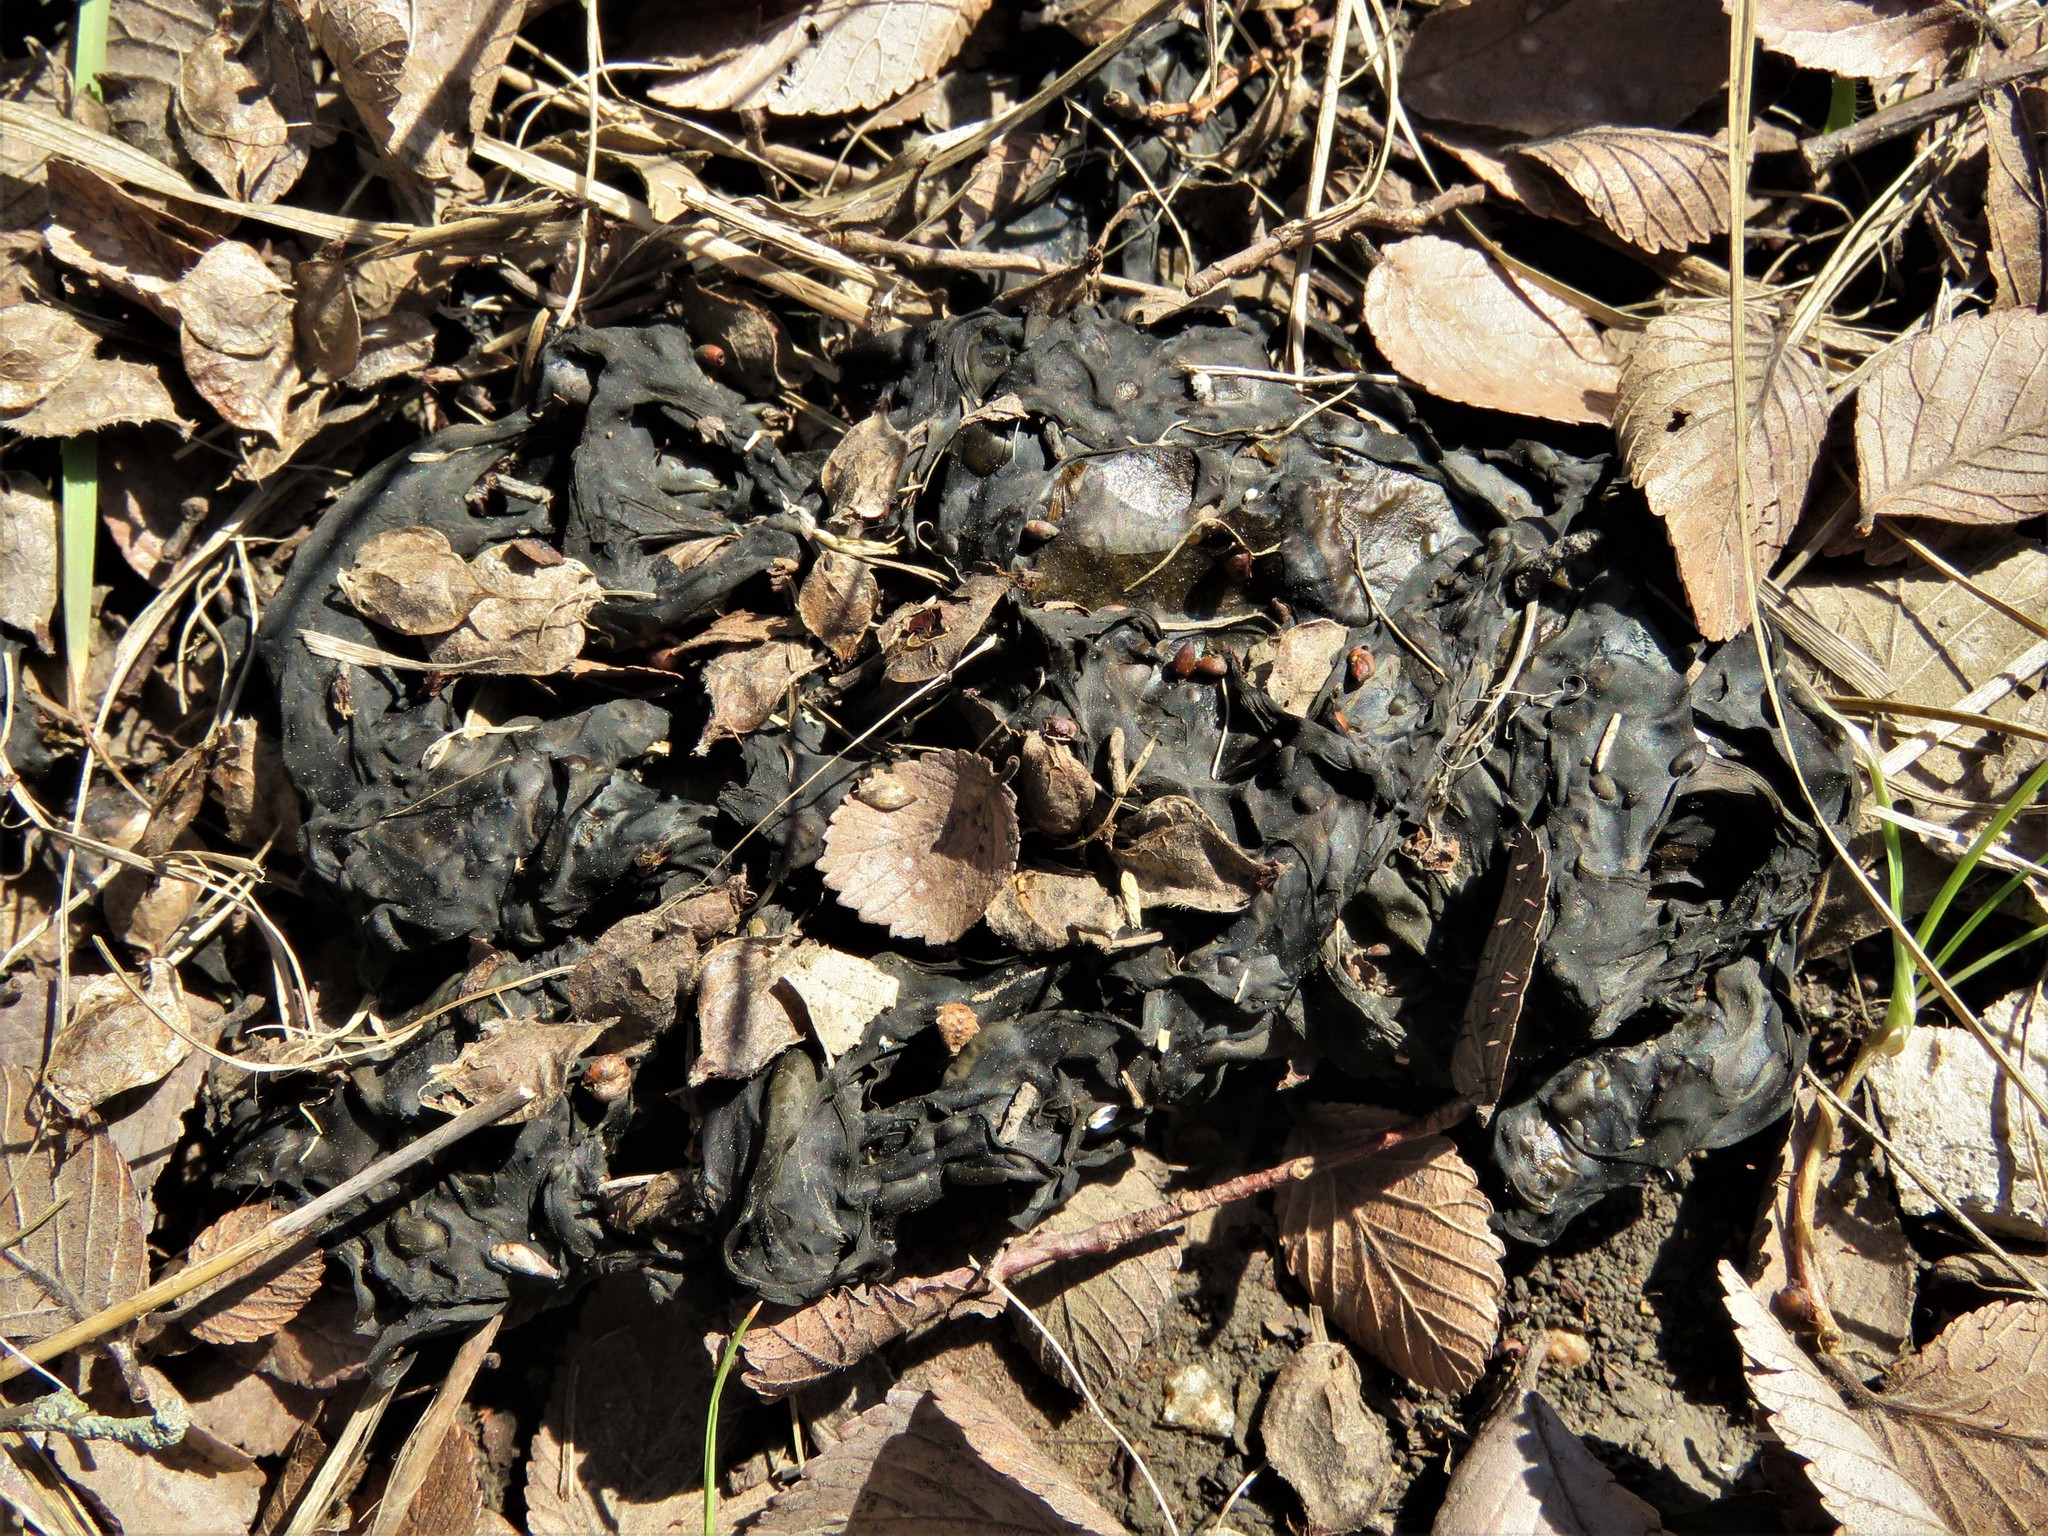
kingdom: Bacteria
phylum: Cyanobacteria
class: Cyanobacteriia
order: Cyanobacteriales
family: Nostocaceae
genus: Nostoc
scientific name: Nostoc commune
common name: Star jelly
